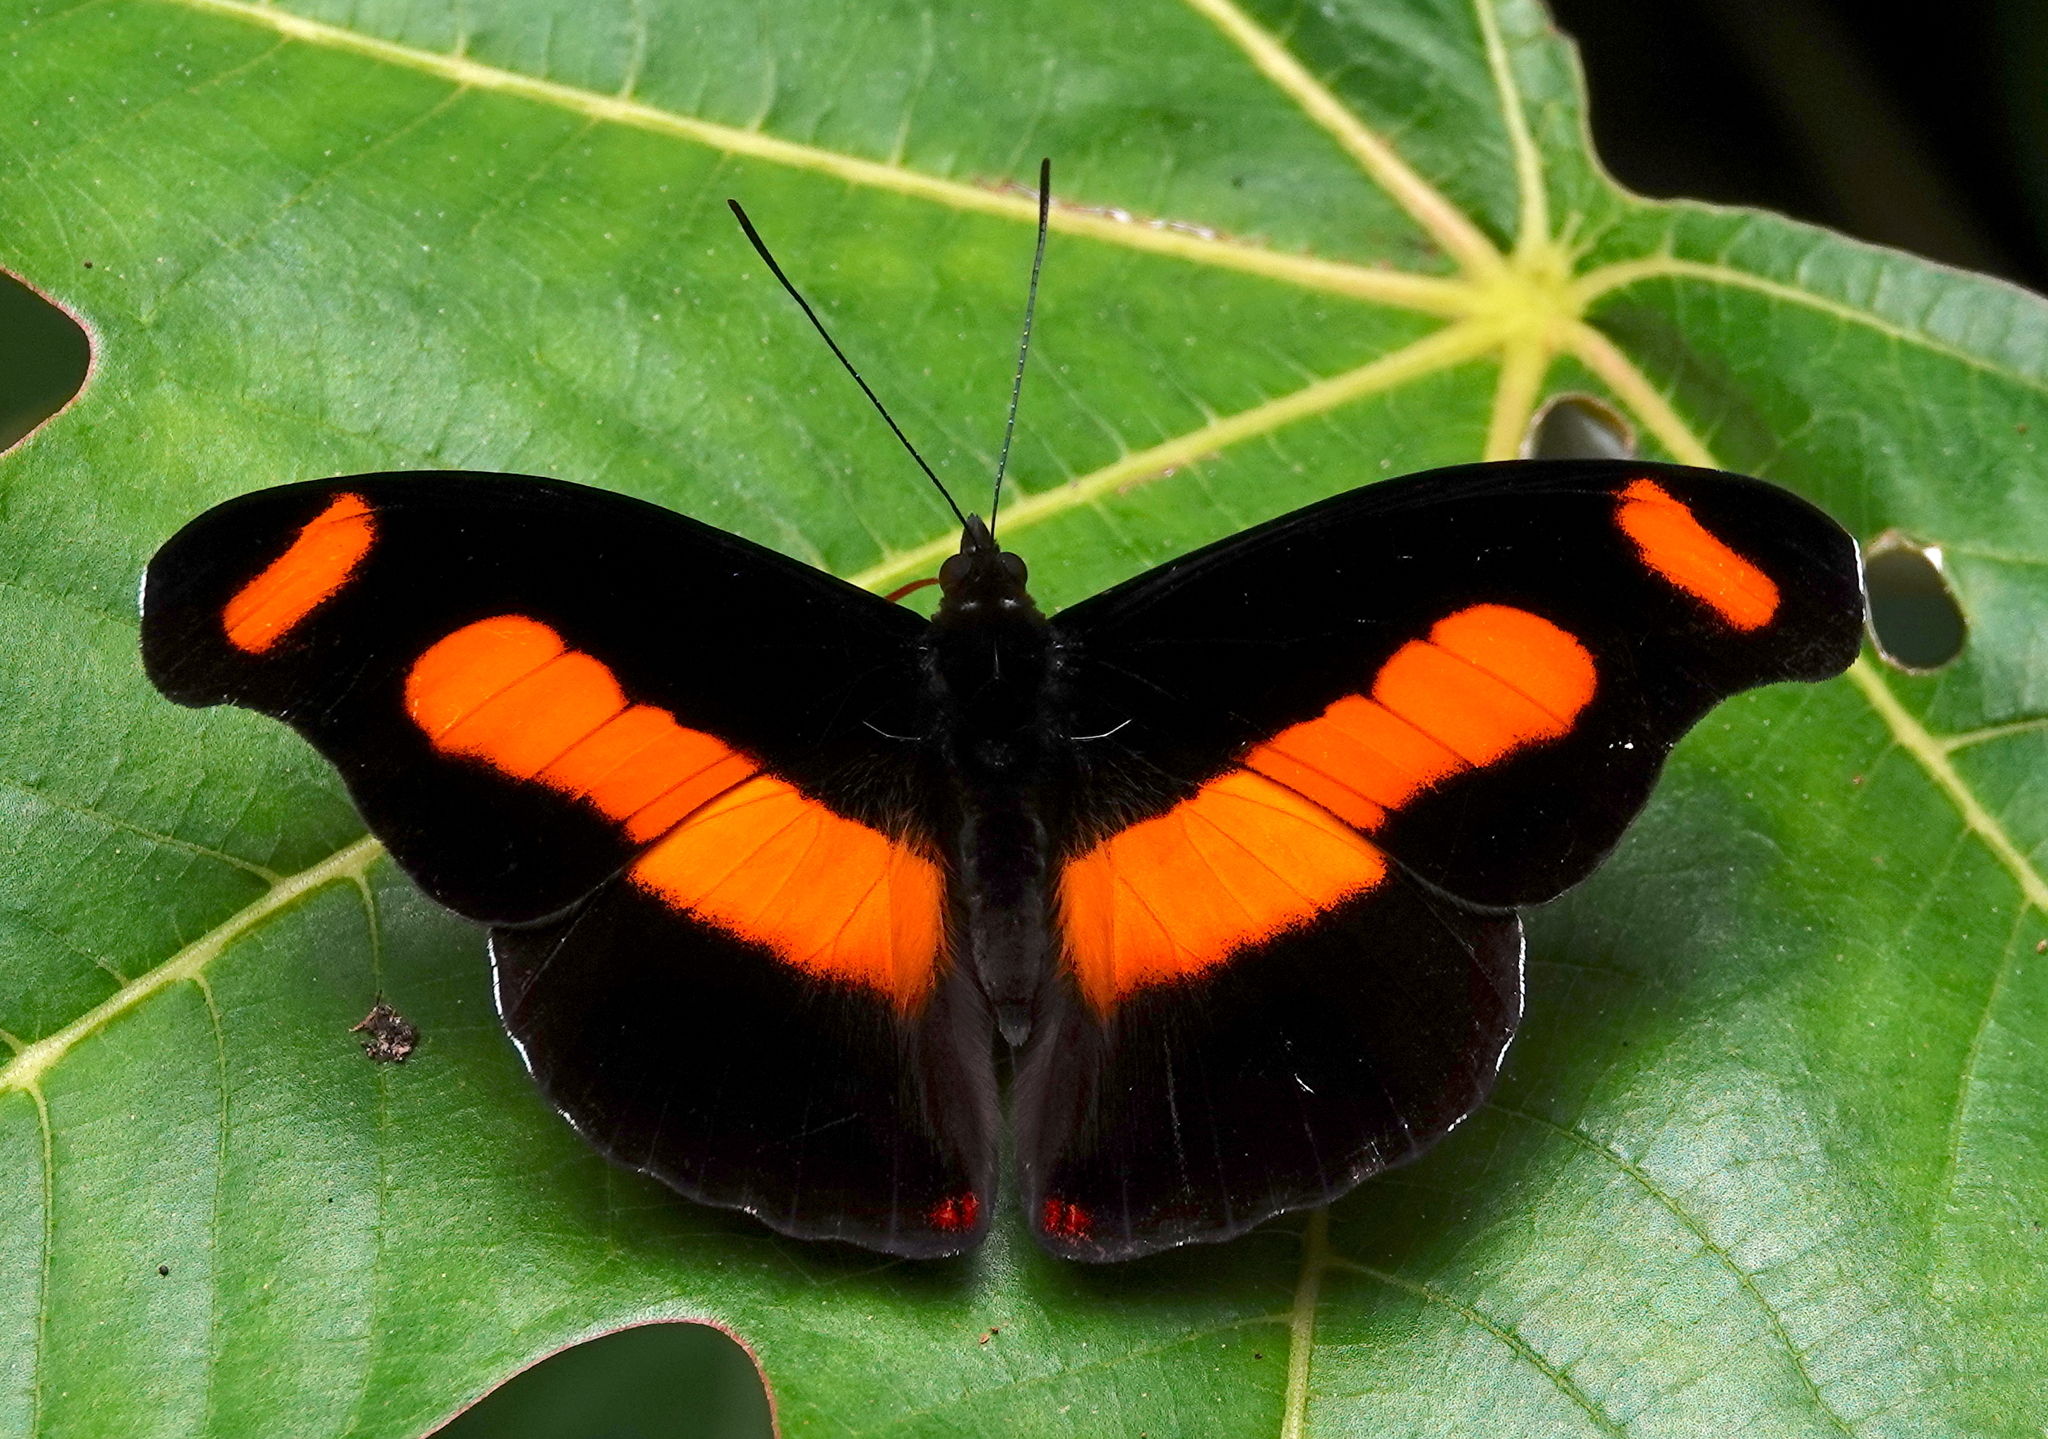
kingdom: Animalia
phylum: Arthropoda
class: Insecta
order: Lepidoptera
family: Nymphalidae
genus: Catonephele
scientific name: Catonephele chromis
